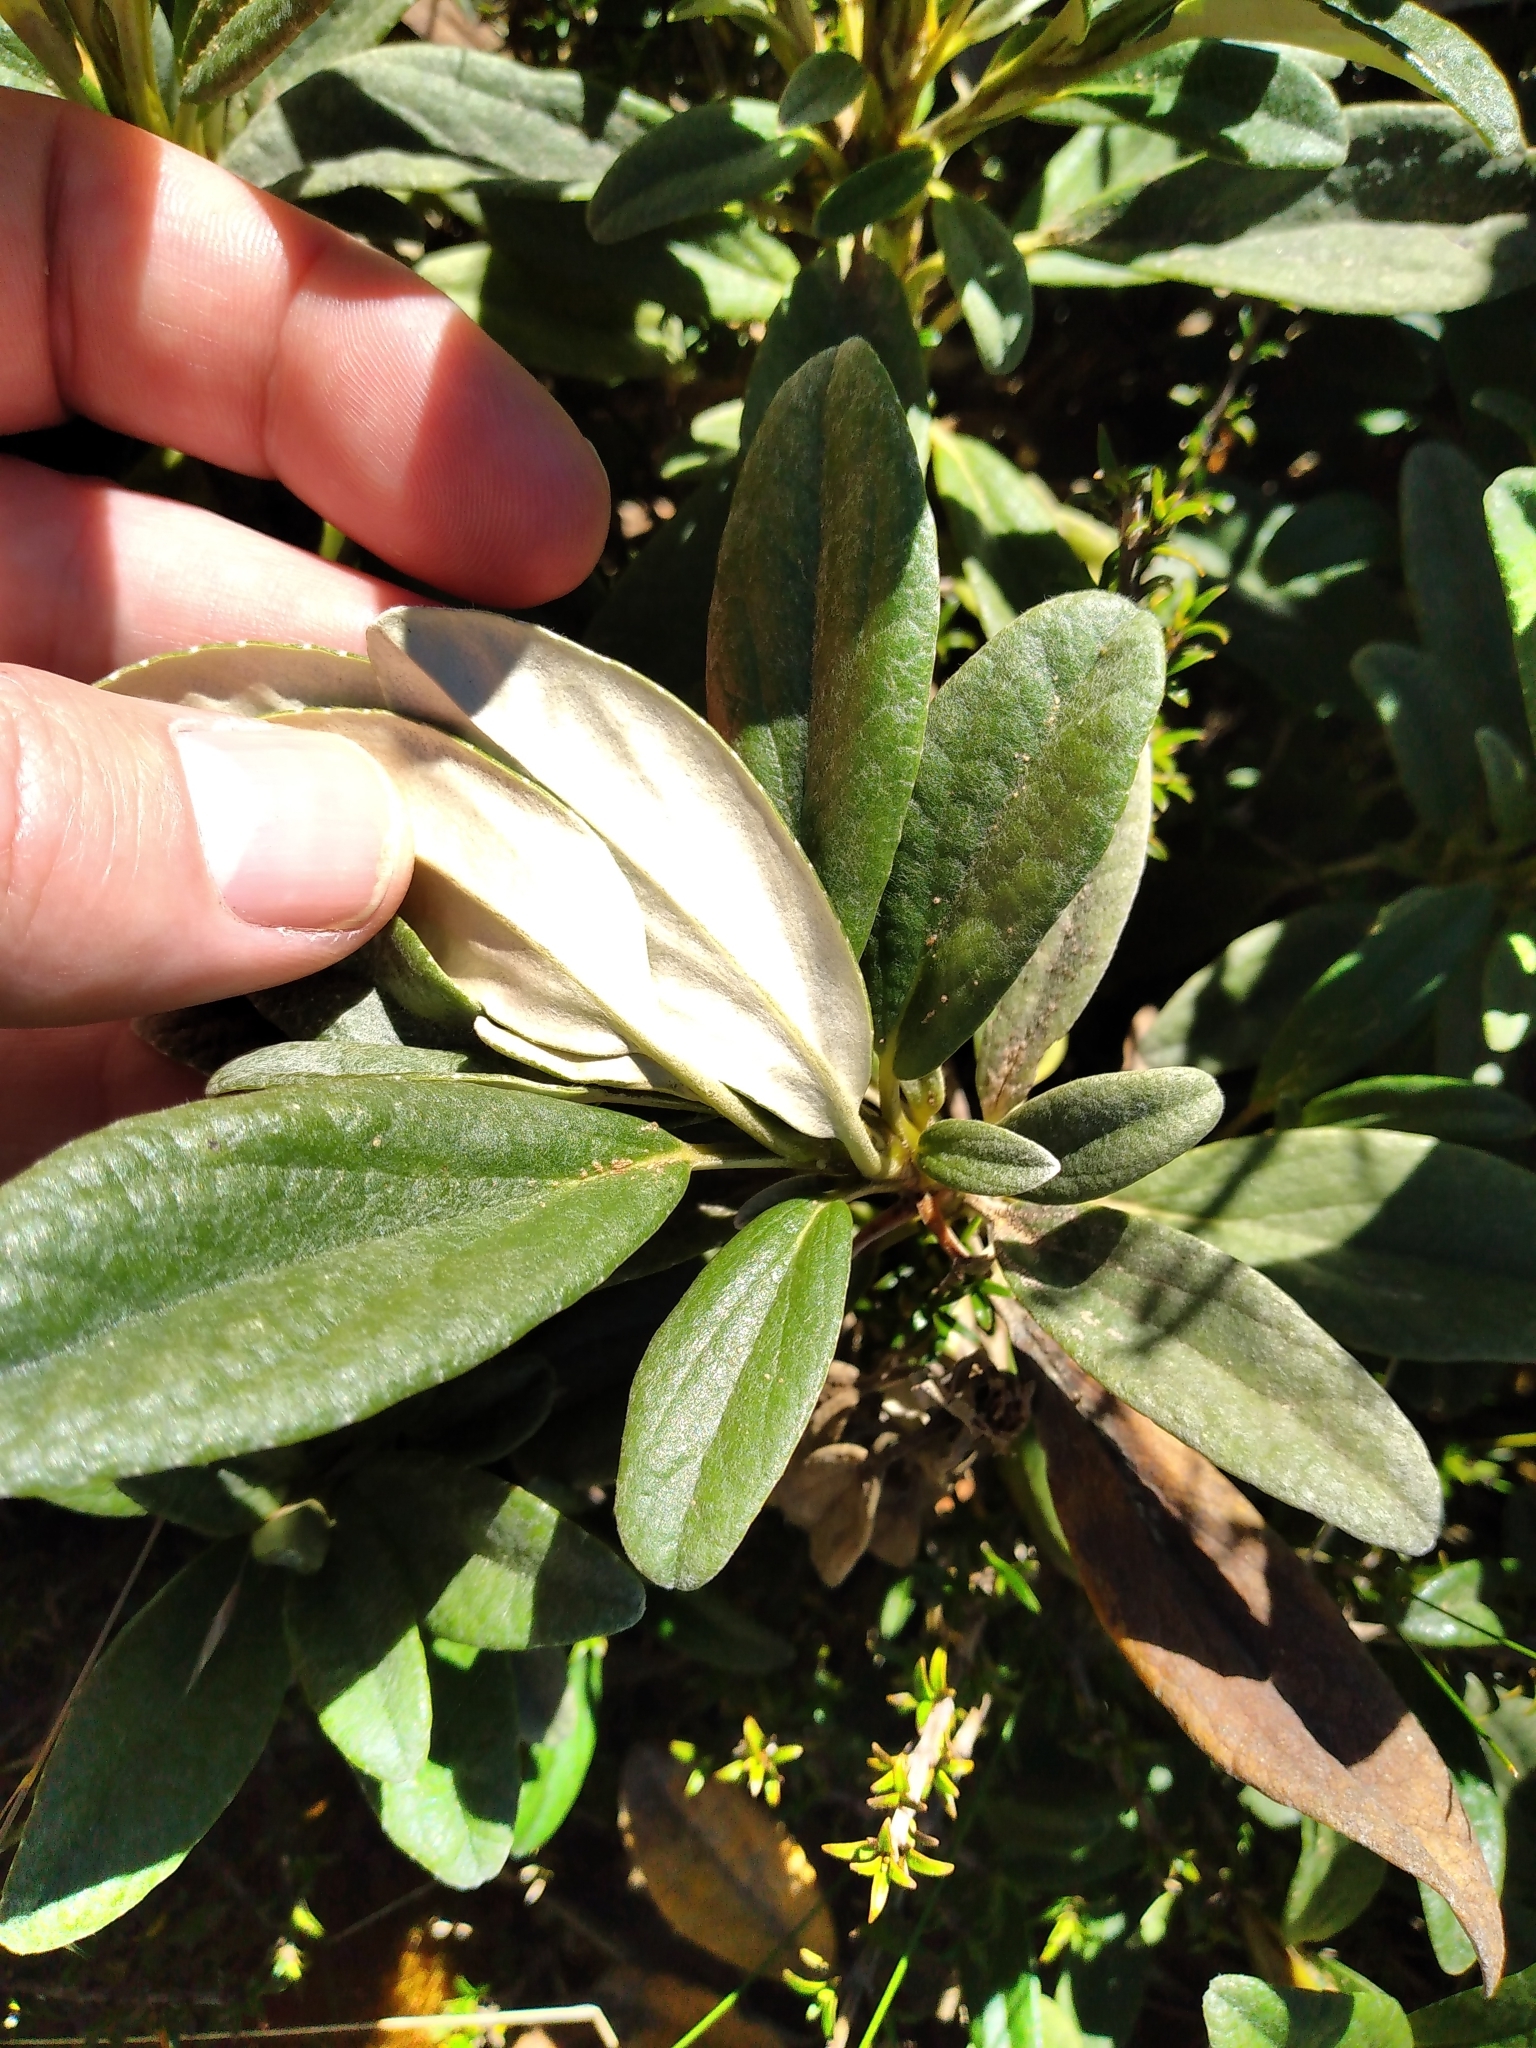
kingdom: Plantae
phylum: Tracheophyta
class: Magnoliopsida
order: Asterales
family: Asteraceae
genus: Brachyglottis
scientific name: Brachyglottis revoluta
